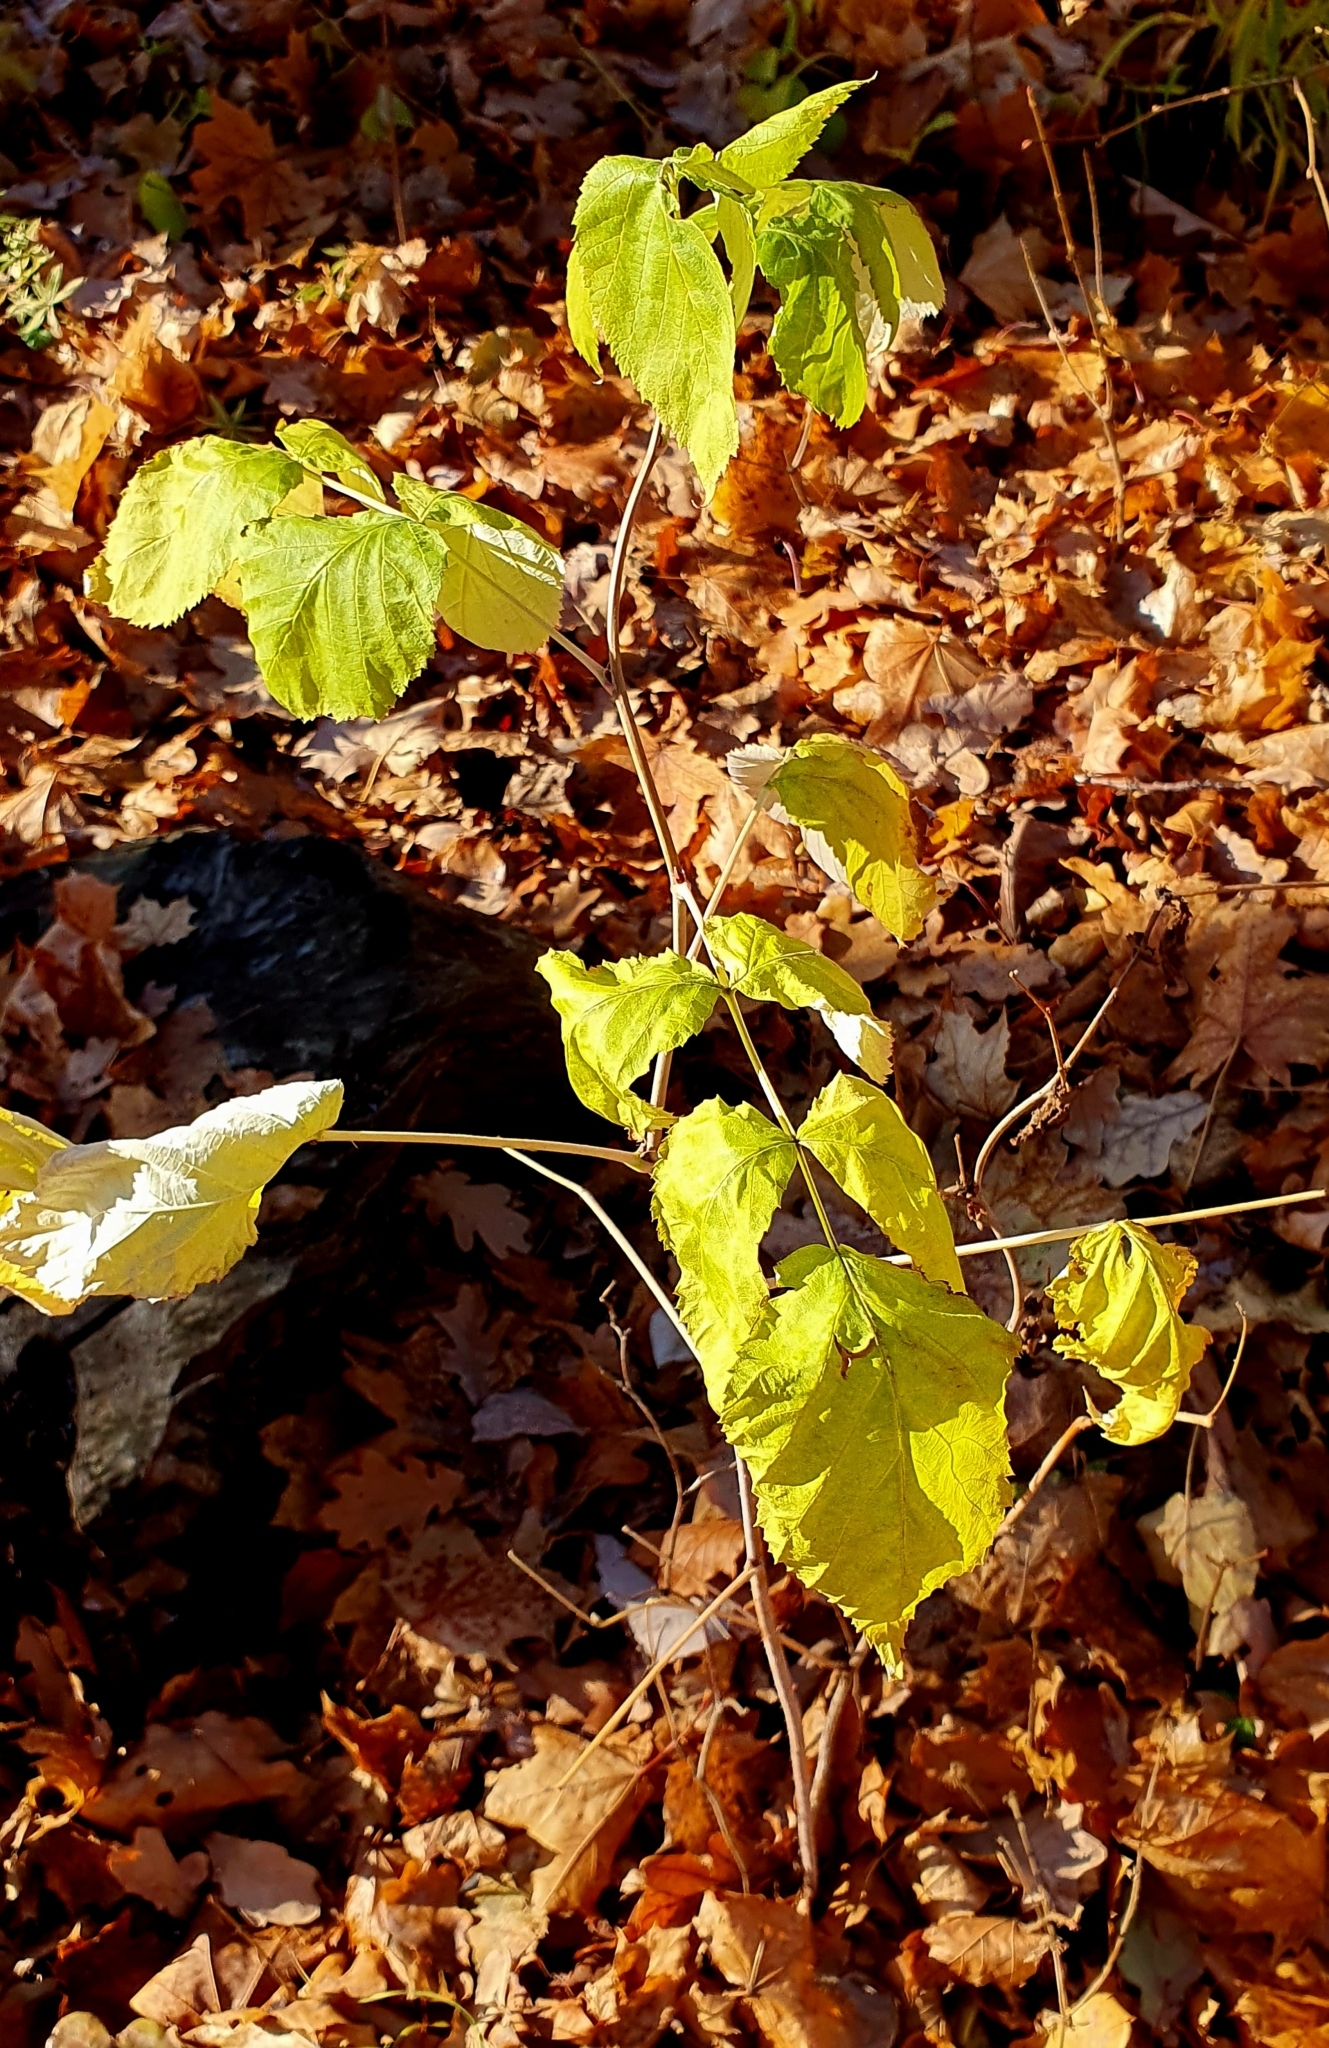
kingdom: Plantae
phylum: Tracheophyta
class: Magnoliopsida
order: Rosales
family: Rosaceae
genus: Rubus
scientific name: Rubus idaeus
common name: Raspberry
